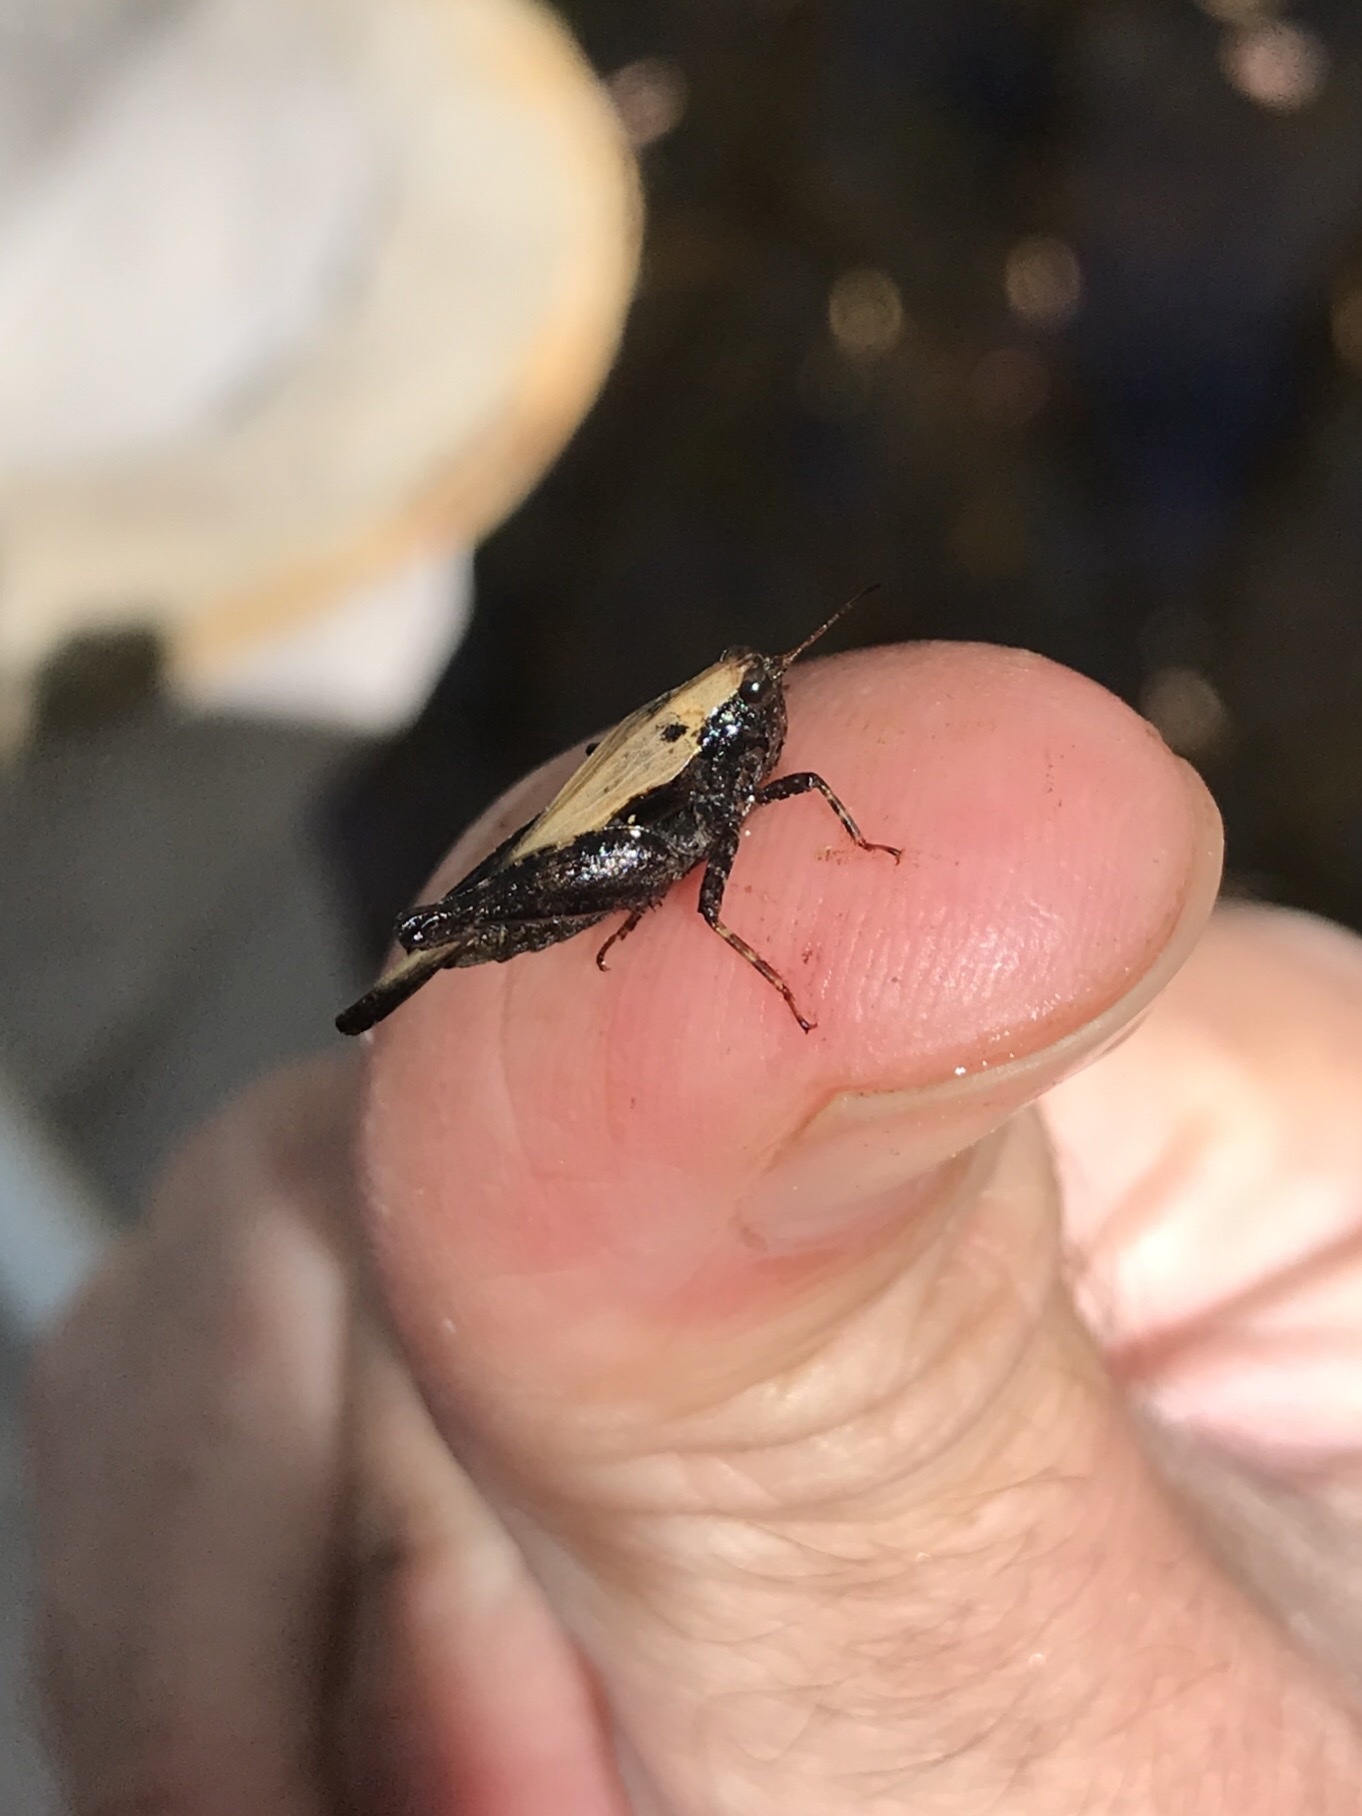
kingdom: Animalia
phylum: Arthropoda
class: Insecta
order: Orthoptera
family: Tetrigidae
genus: Tettigidea
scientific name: Tettigidea laterale
